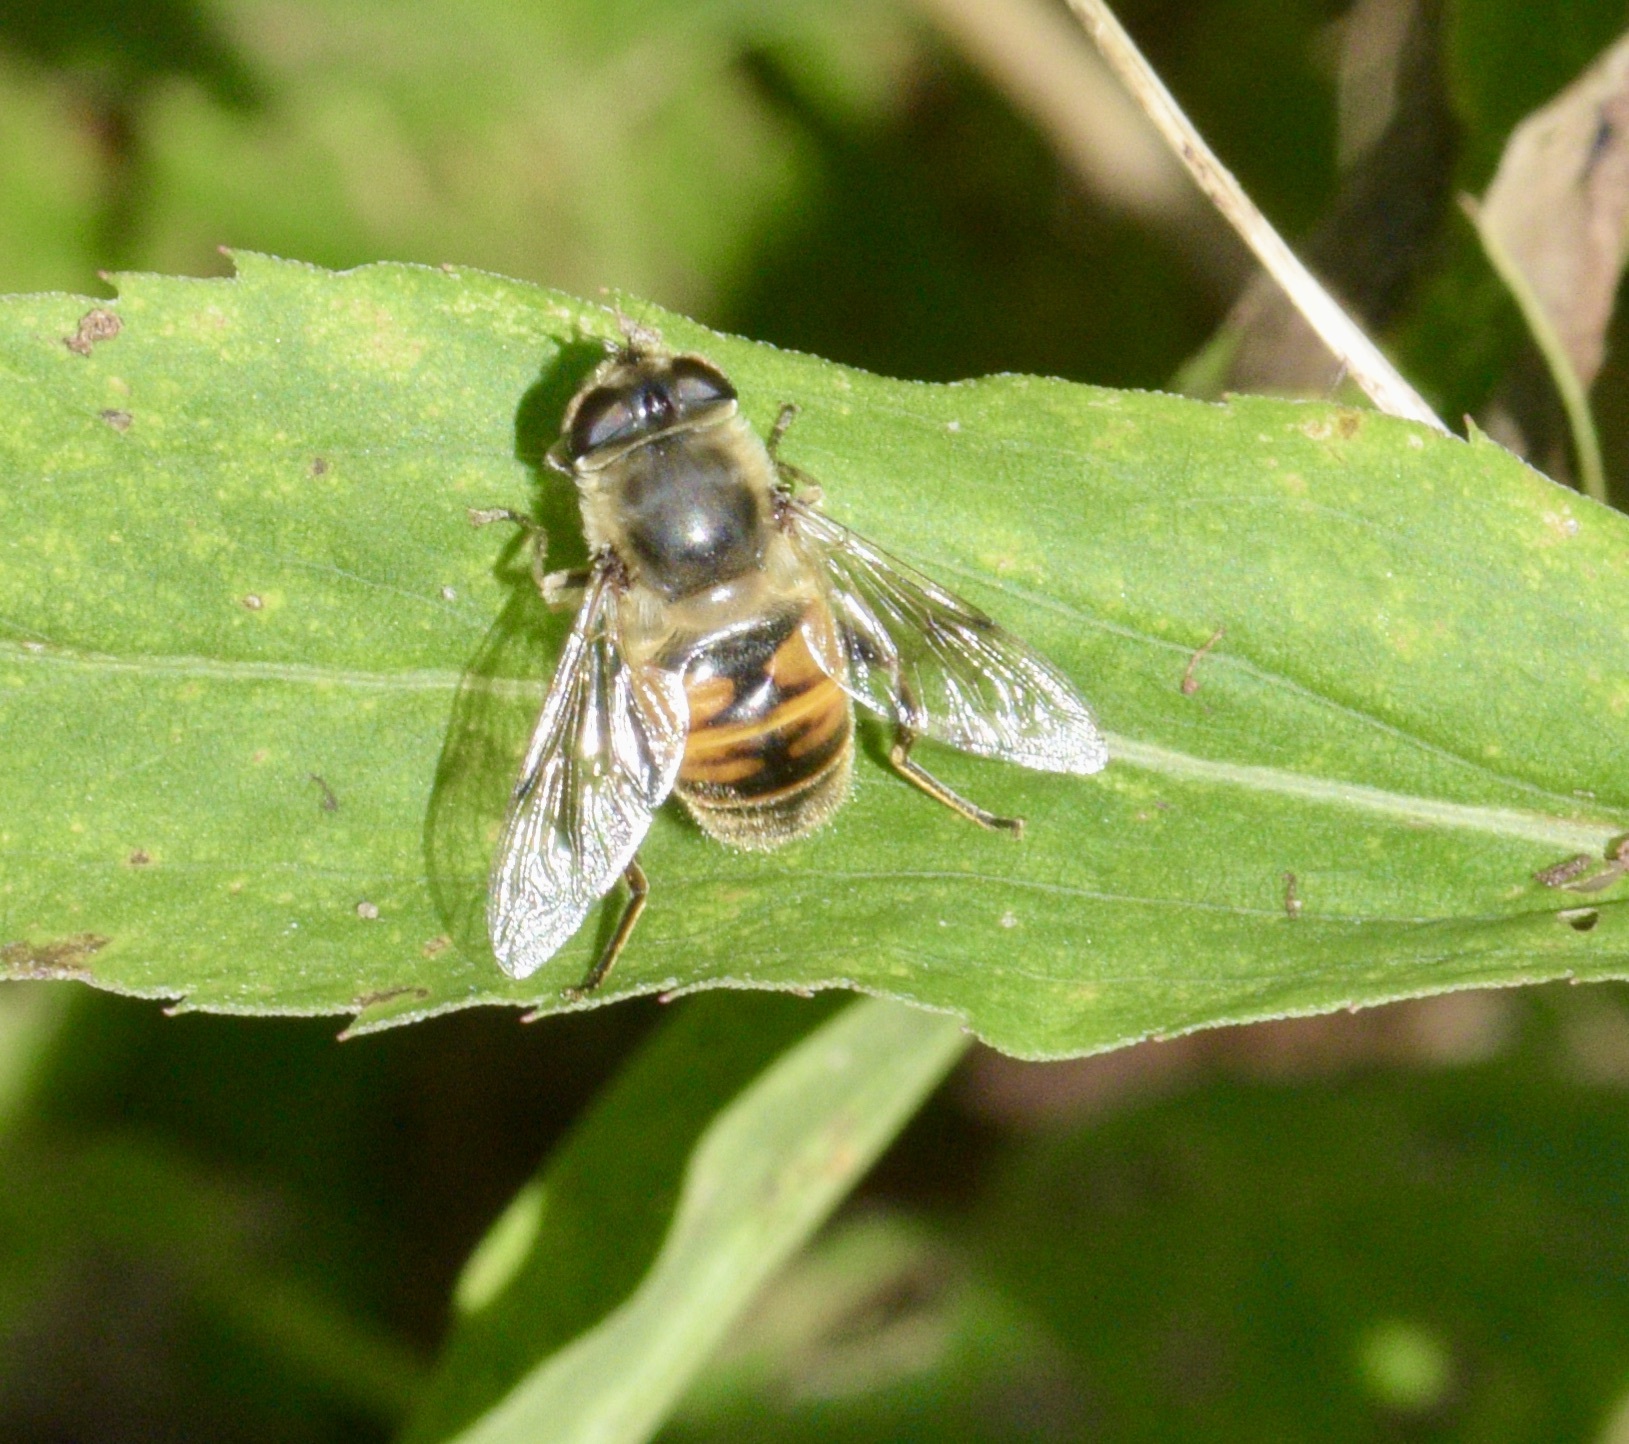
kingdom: Animalia
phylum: Arthropoda
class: Insecta
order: Diptera
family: Syrphidae
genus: Eristalis
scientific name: Eristalis tenax
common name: Drone fly
